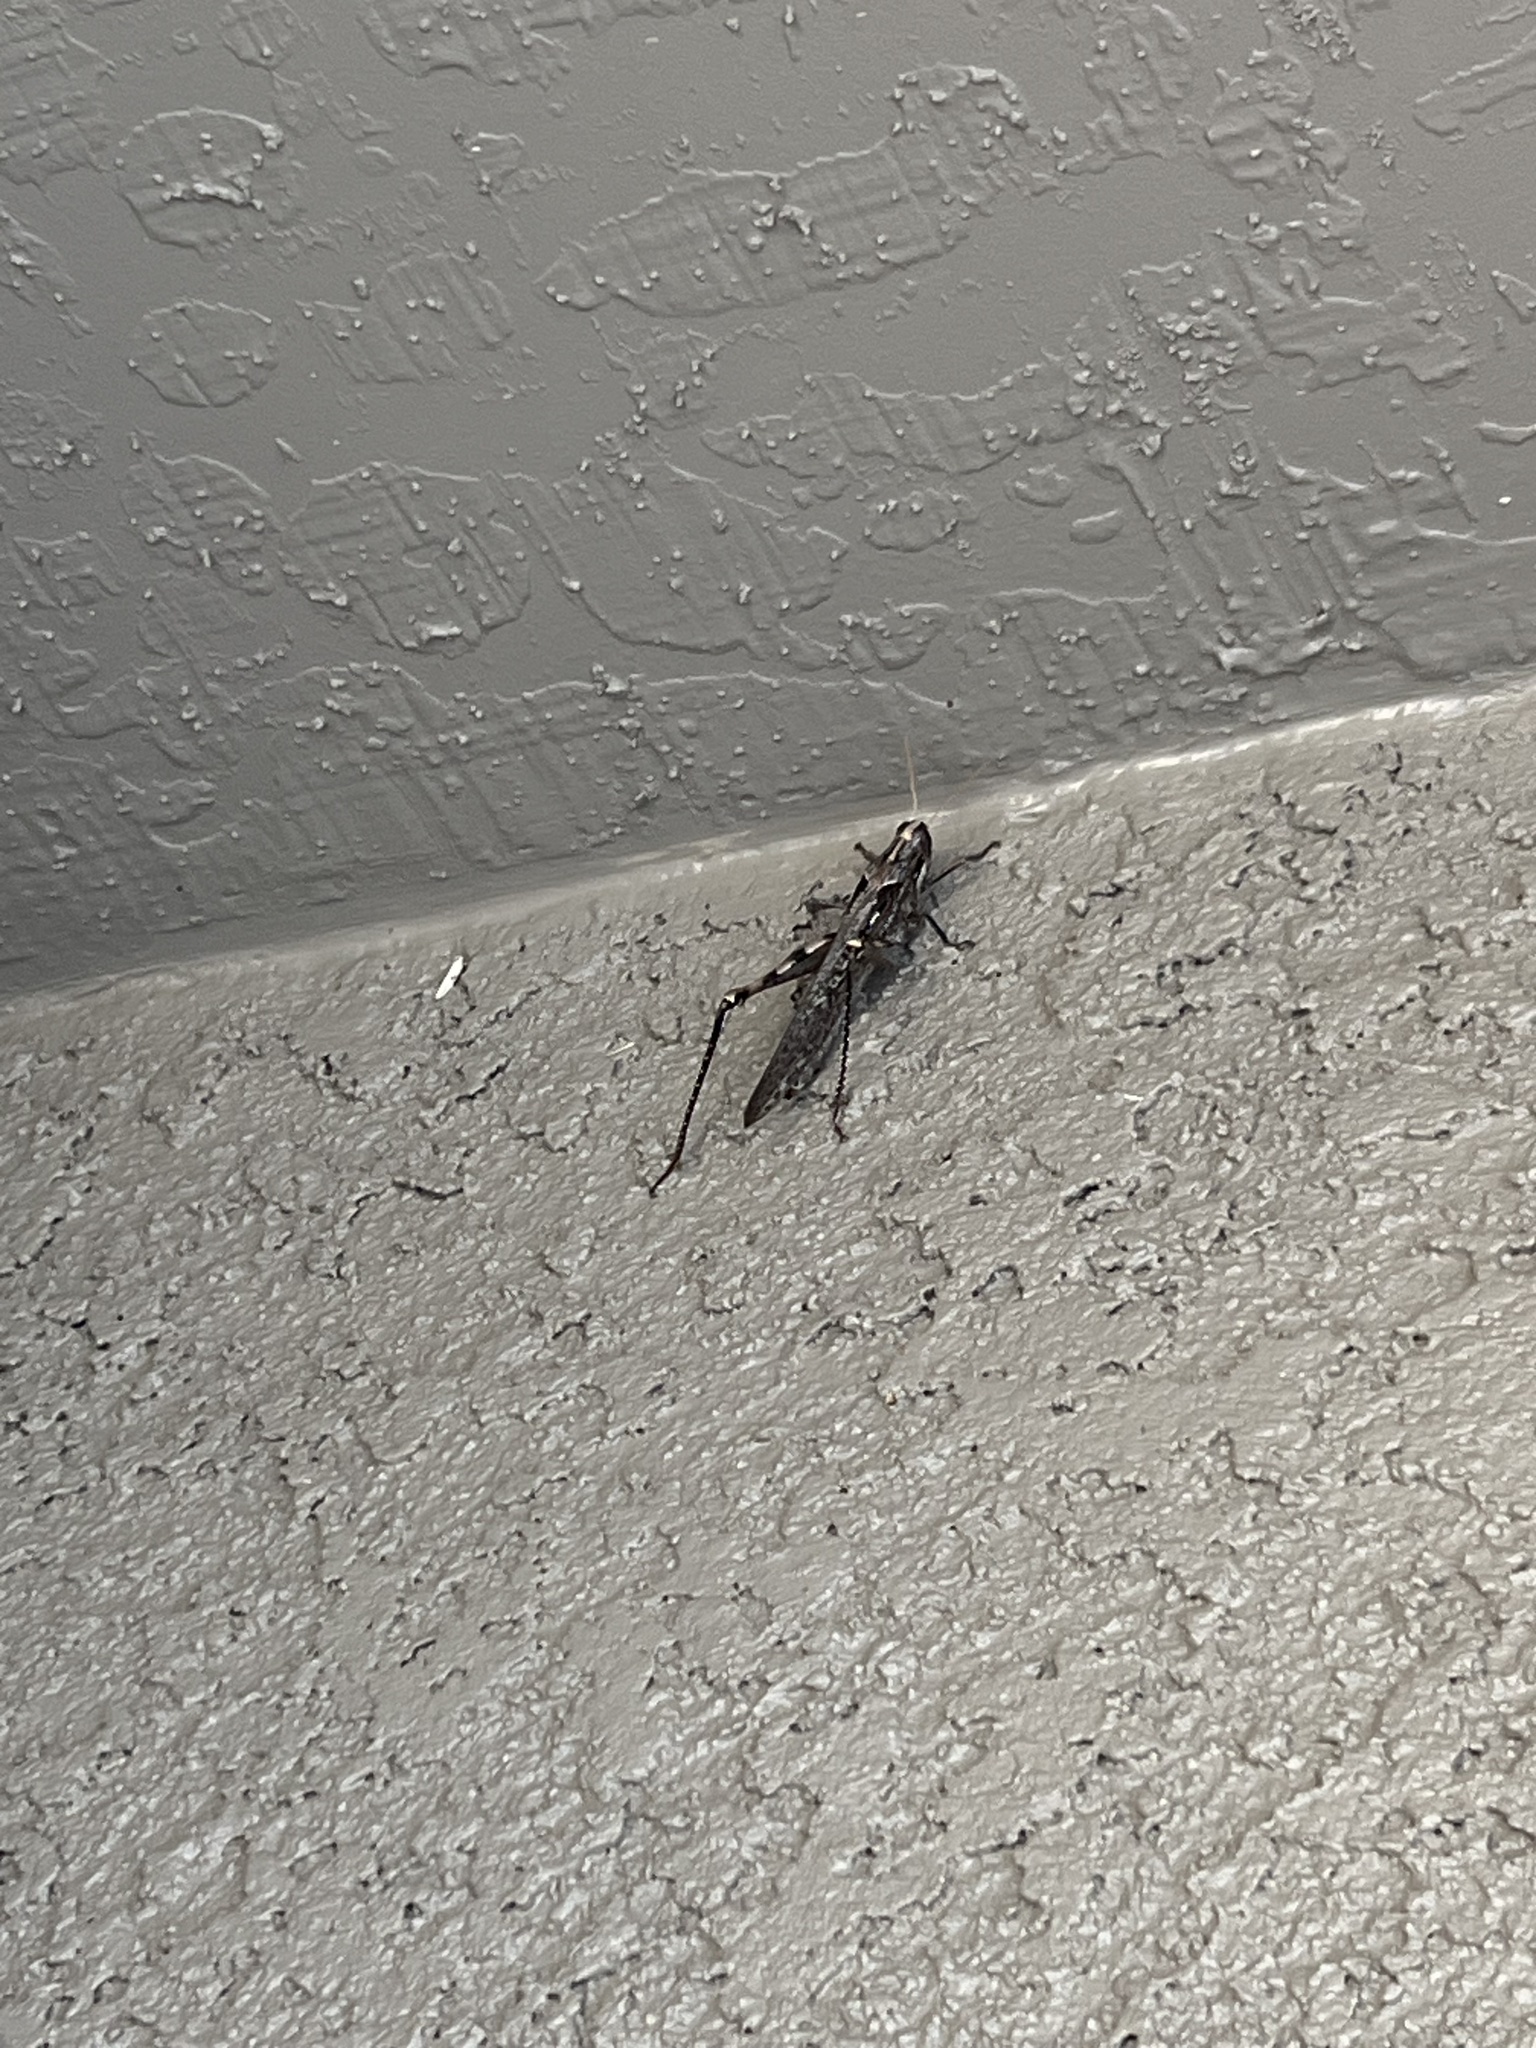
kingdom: Animalia
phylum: Arthropoda
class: Insecta
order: Orthoptera
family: Acrididae
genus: Schistocerca
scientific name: Schistocerca nitens
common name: Vagrant grasshopper
